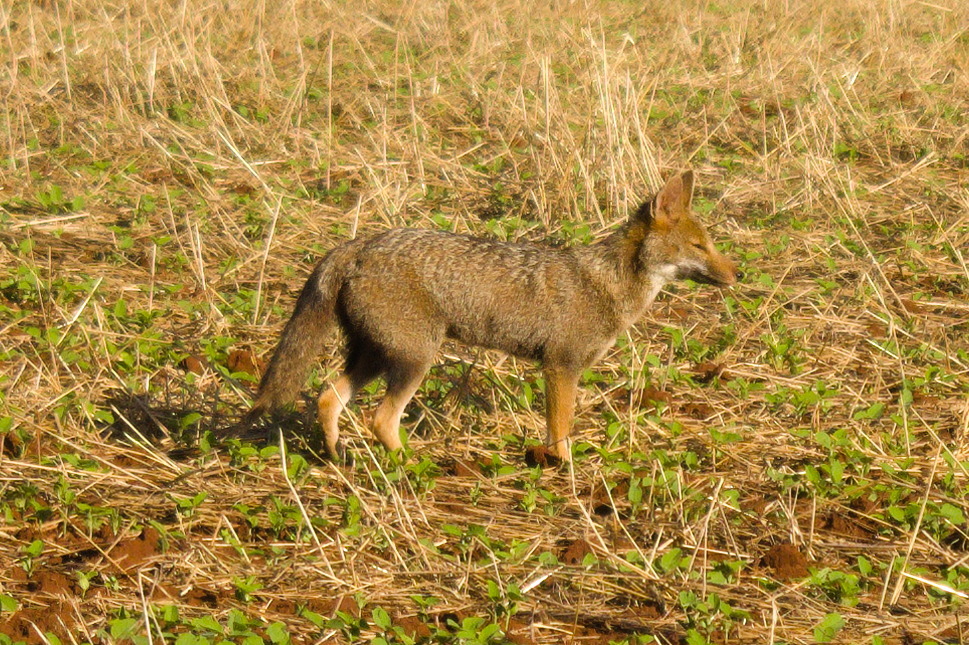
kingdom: Animalia
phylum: Chordata
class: Mammalia
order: Carnivora
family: Canidae
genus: Lycalopex
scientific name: Lycalopex gymnocercus
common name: Pampas fox
